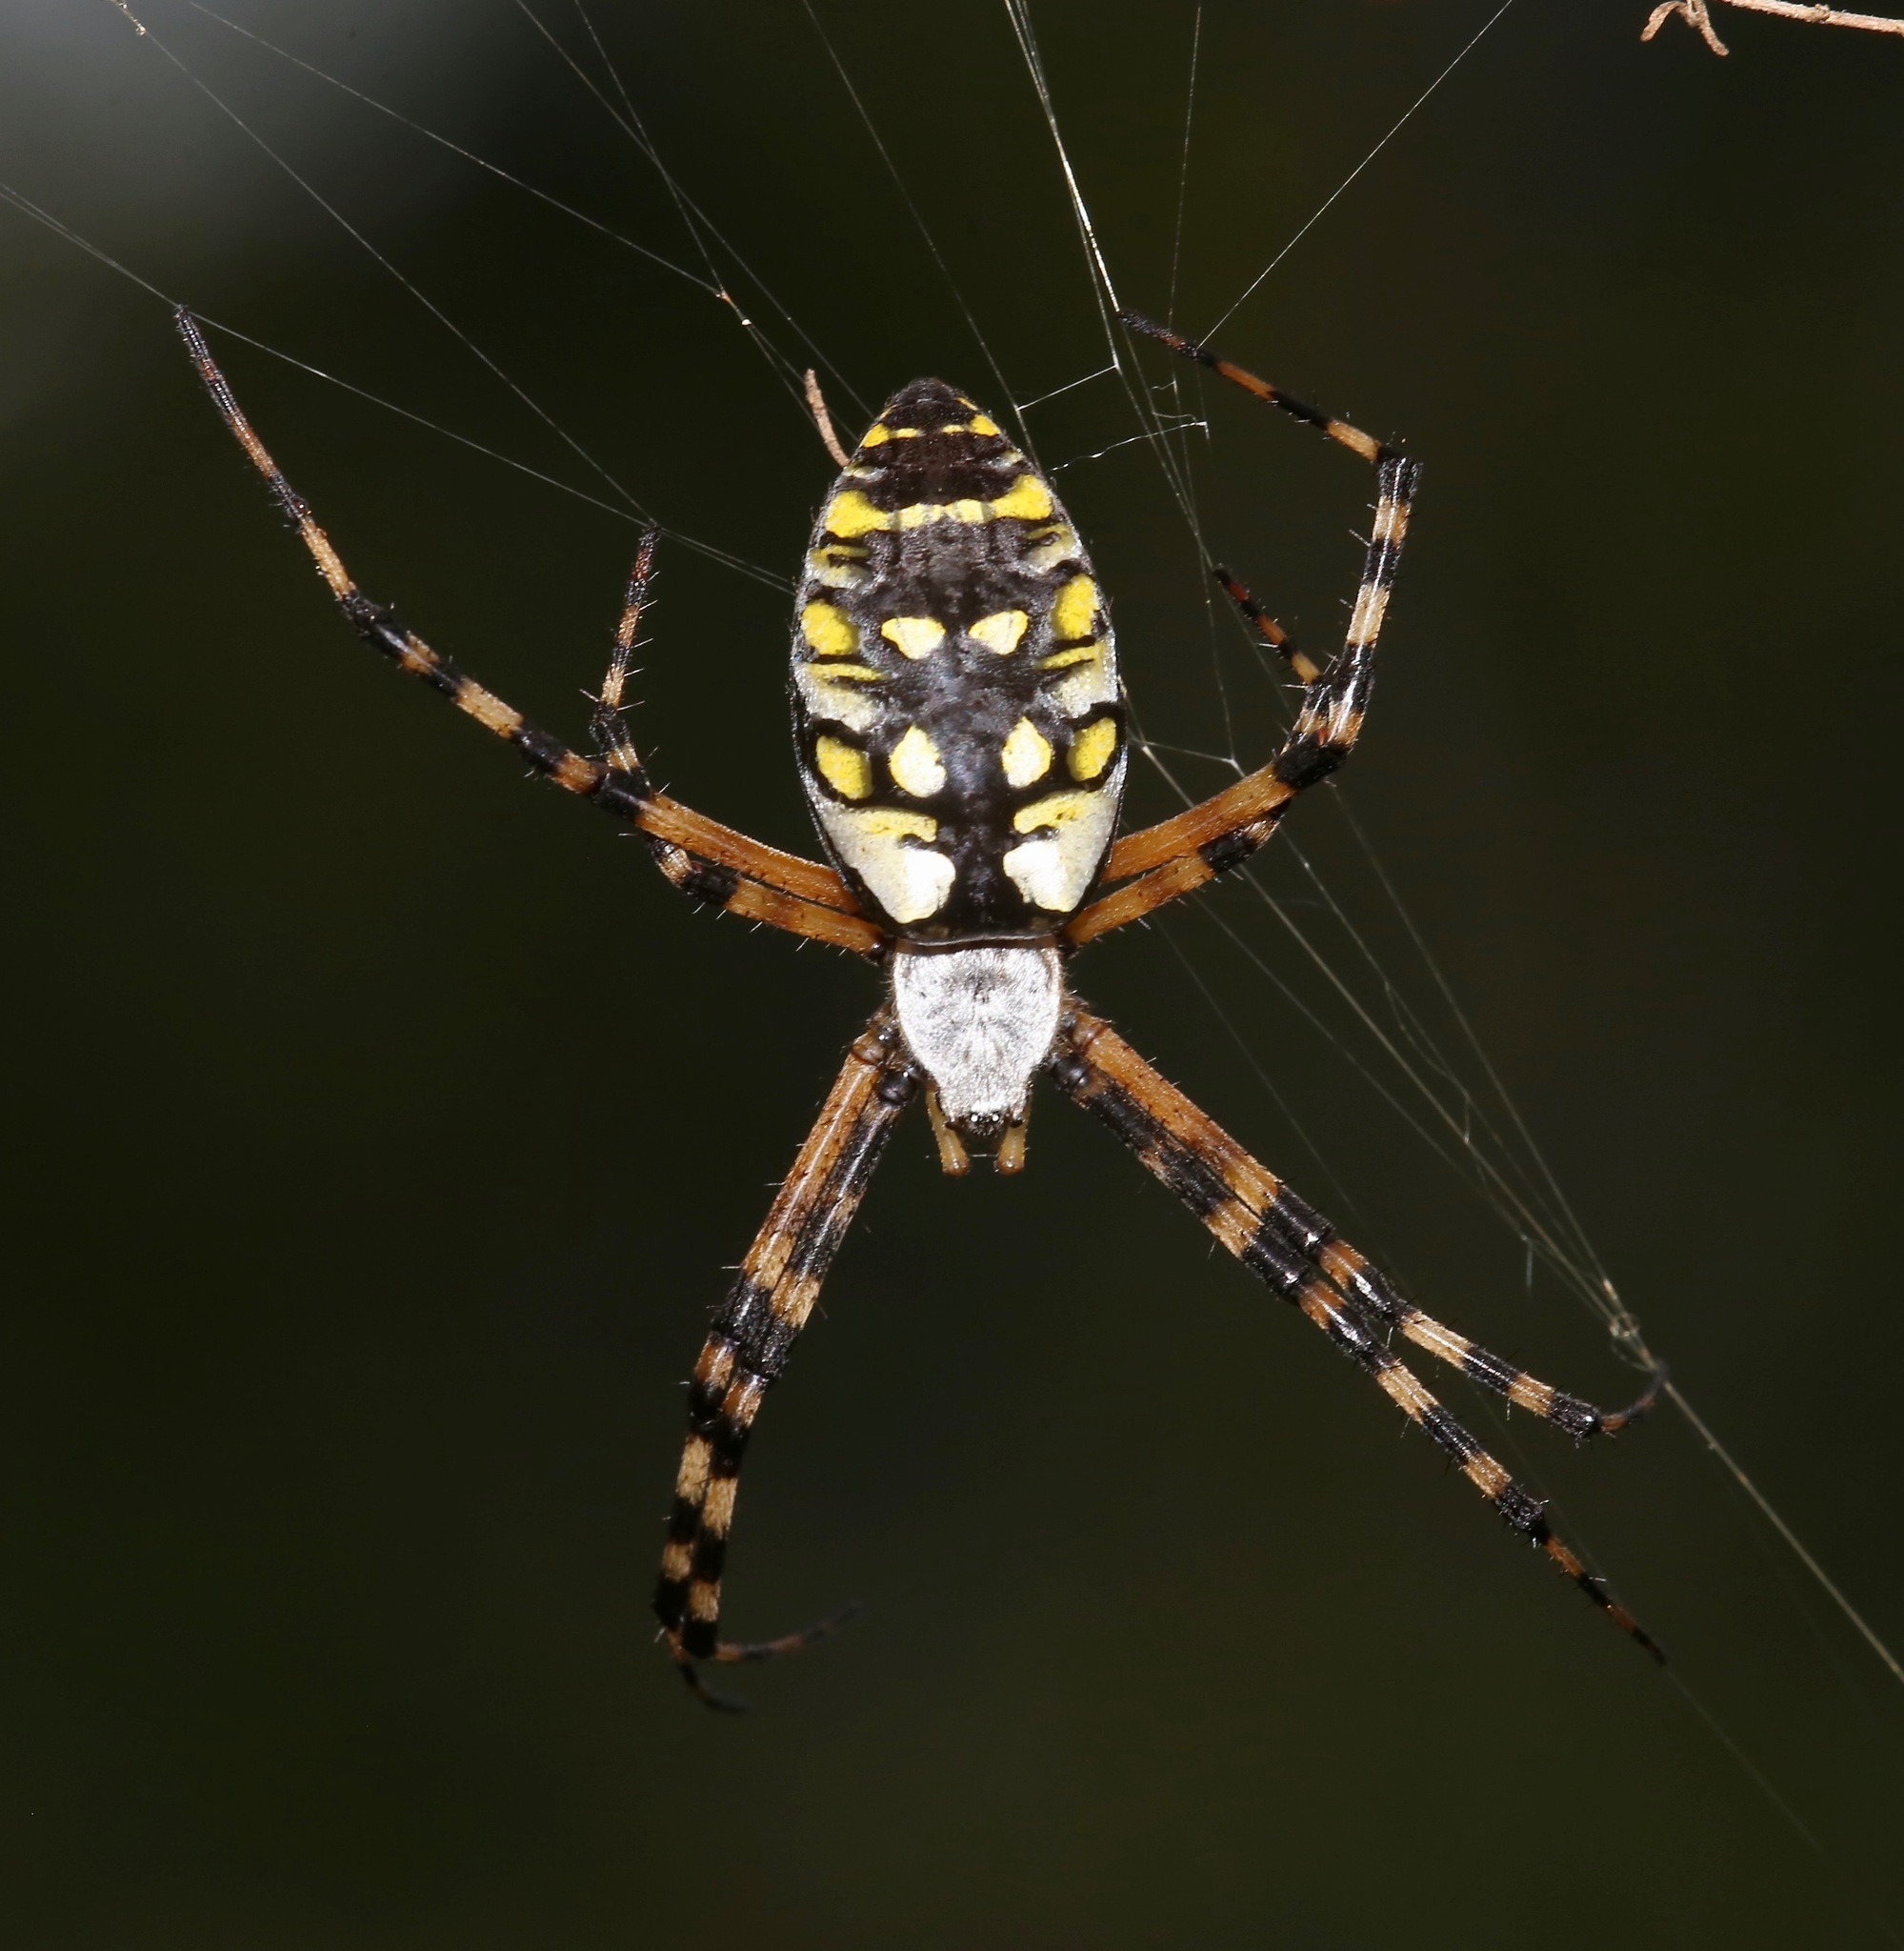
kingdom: Animalia
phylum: Arthropoda
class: Arachnida
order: Araneae
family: Araneidae
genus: Argiope
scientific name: Argiope aurantia
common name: Orb weavers
